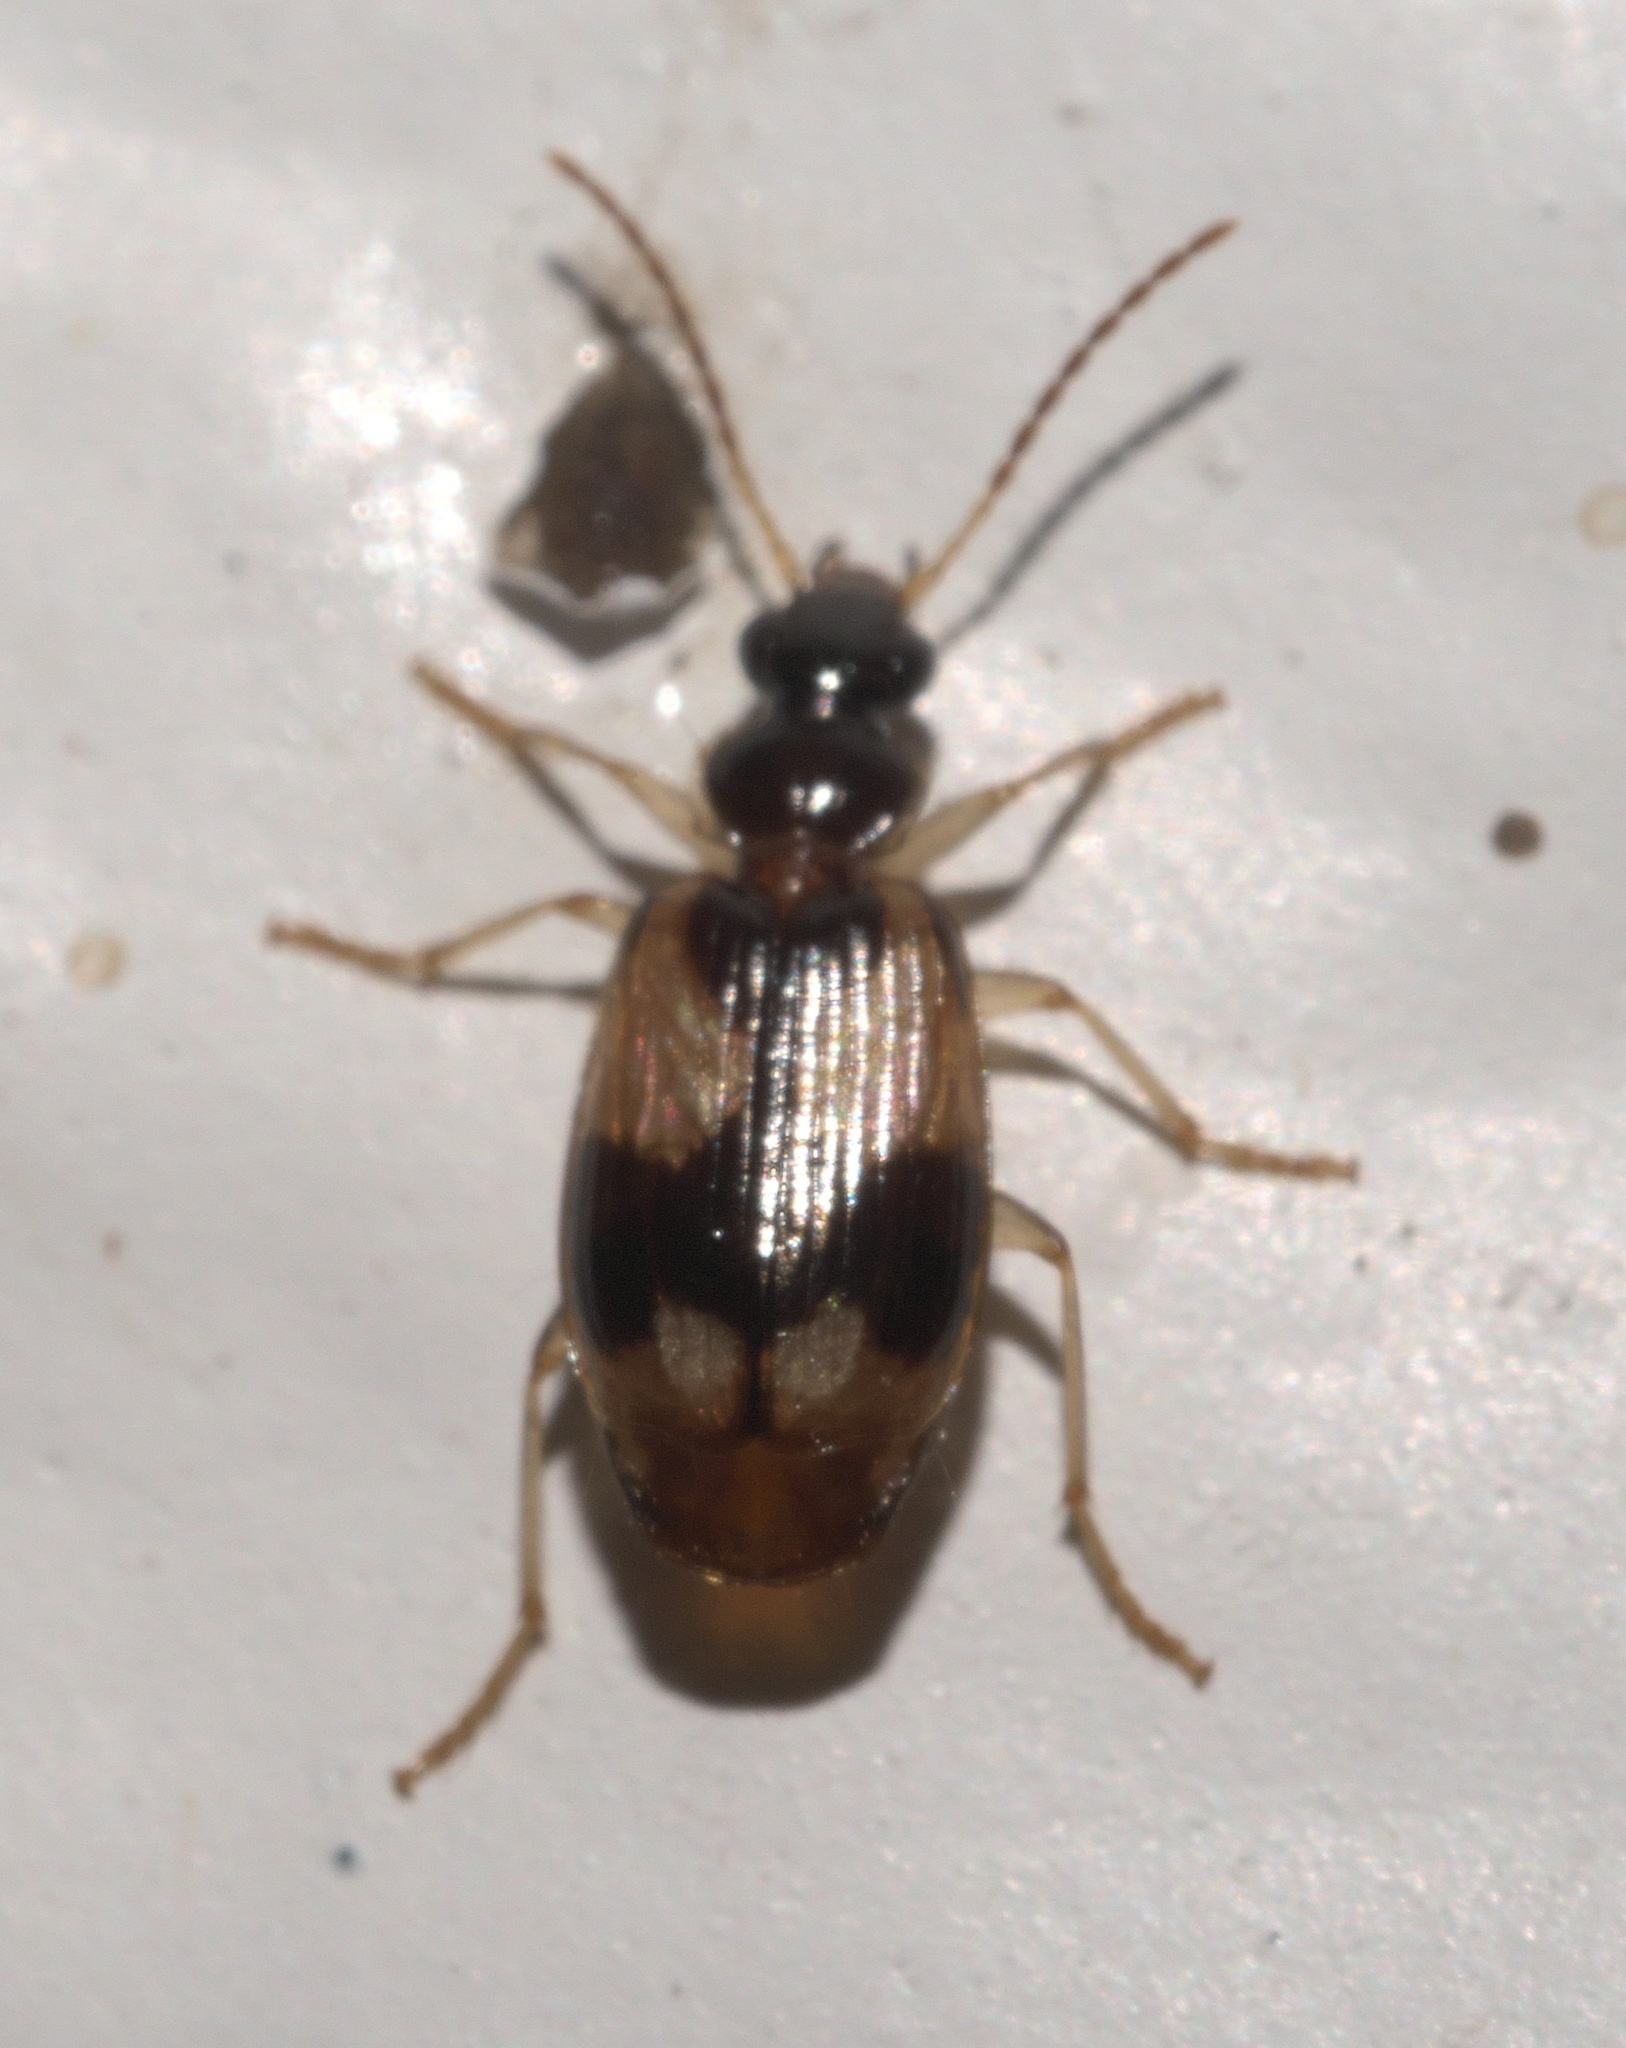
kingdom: Animalia
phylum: Arthropoda
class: Insecta
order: Coleoptera
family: Carabidae
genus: Lebia
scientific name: Lebia fuscata
